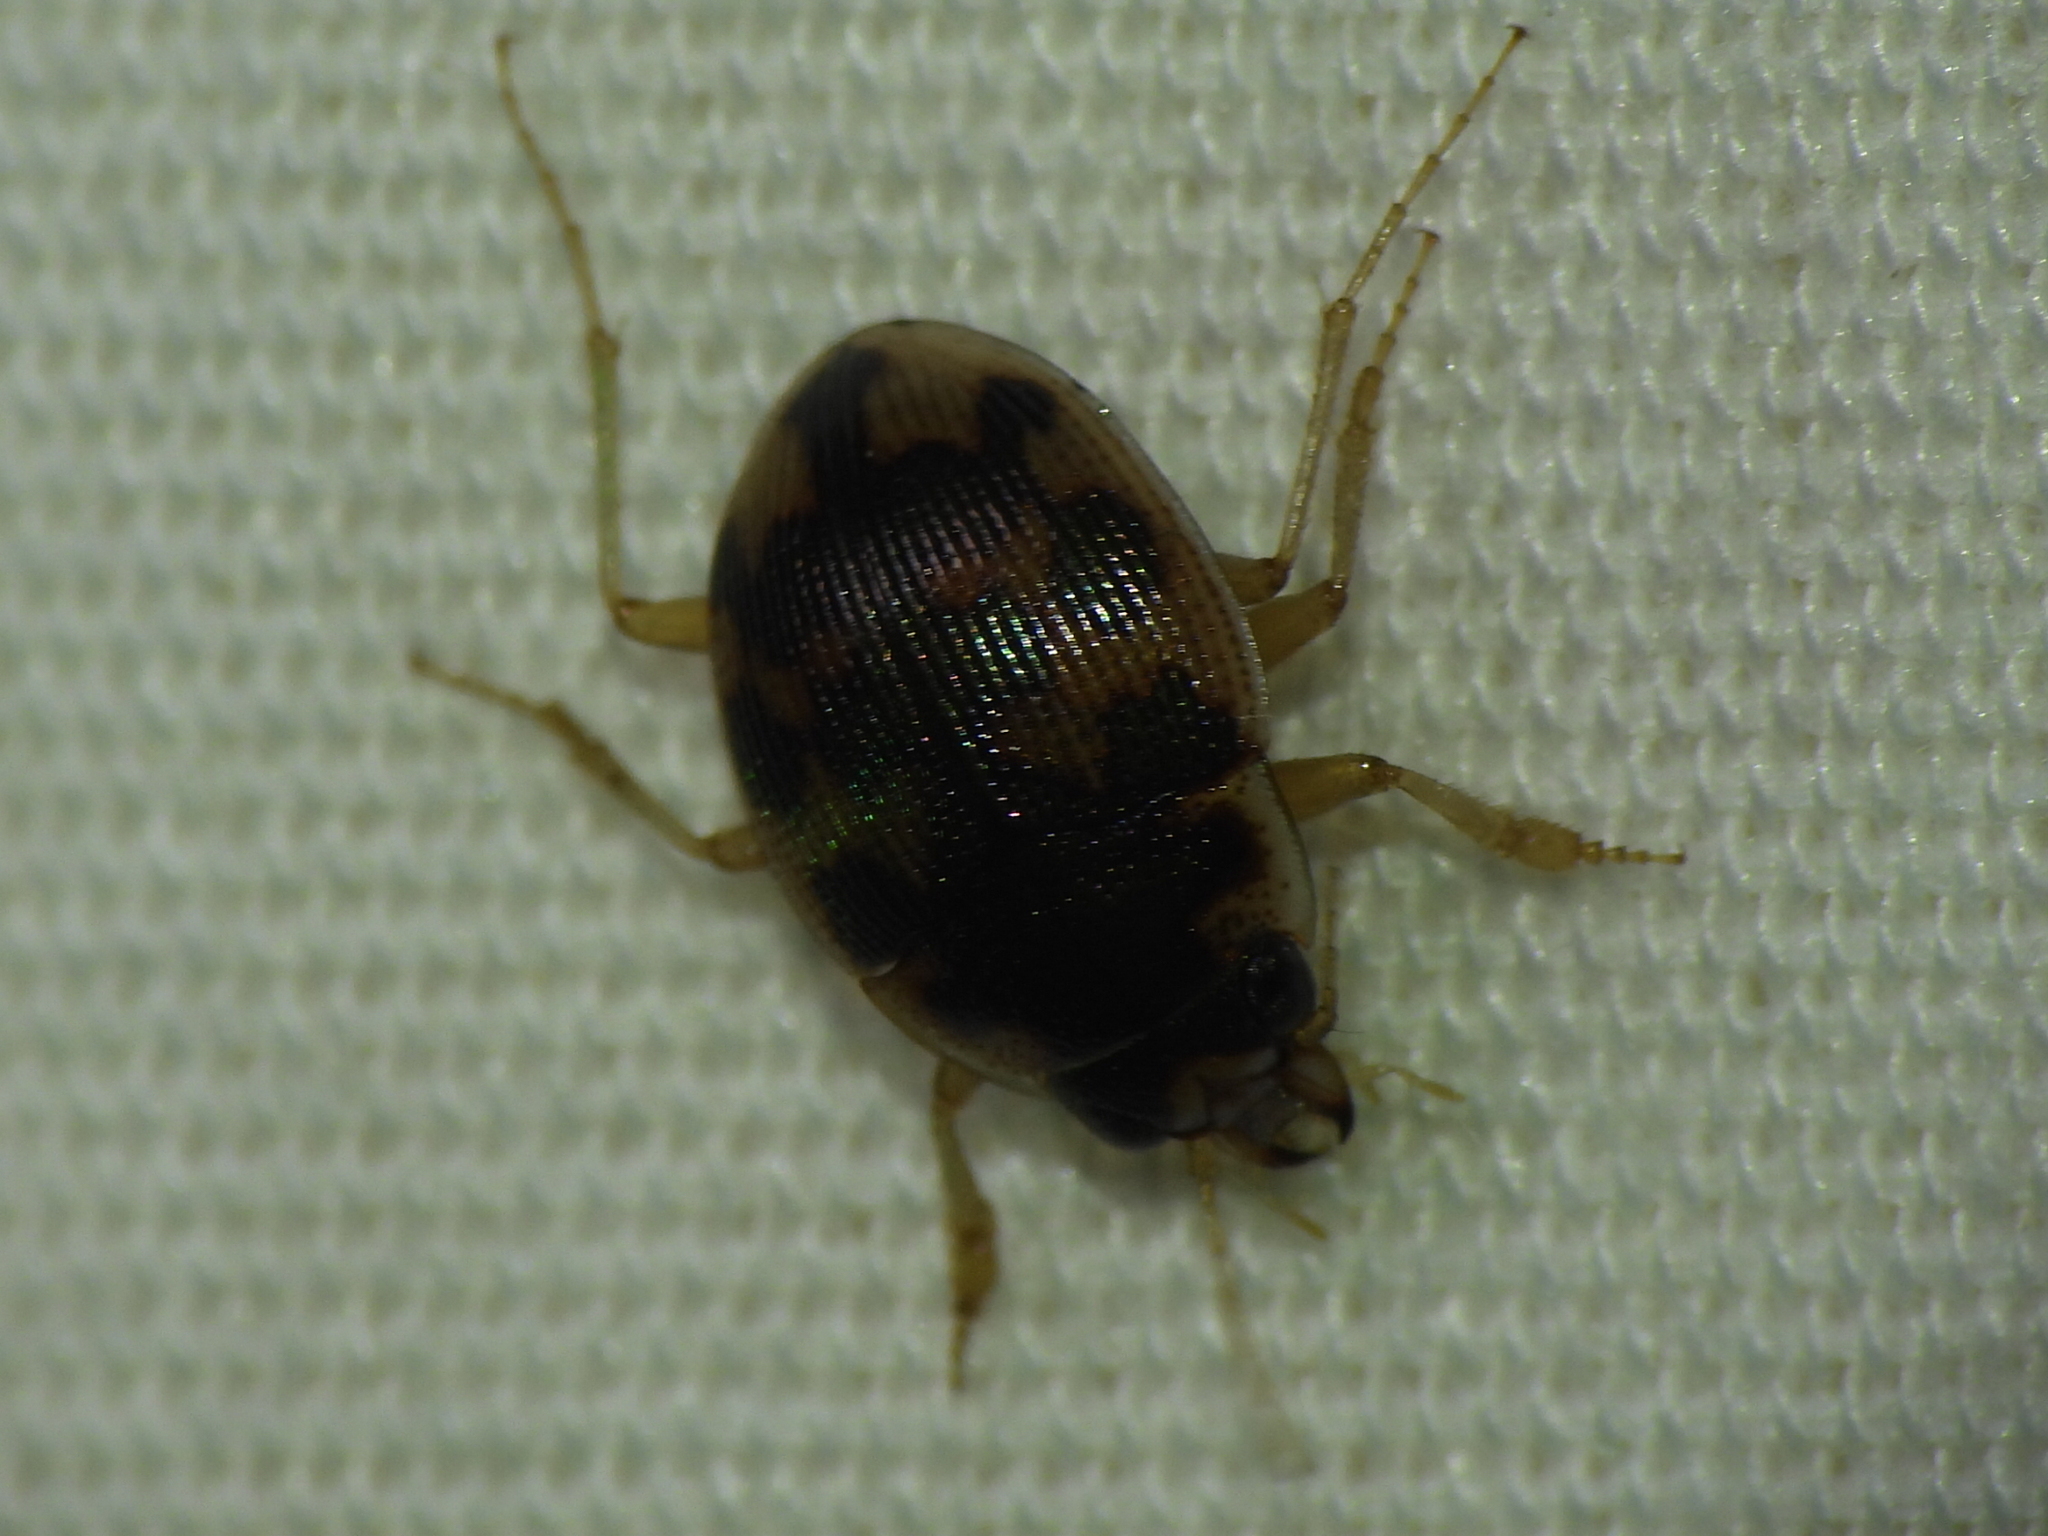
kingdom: Animalia
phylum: Arthropoda
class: Insecta
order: Coleoptera
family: Carabidae
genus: Omophron
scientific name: Omophron americanum
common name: American round sand beetle
